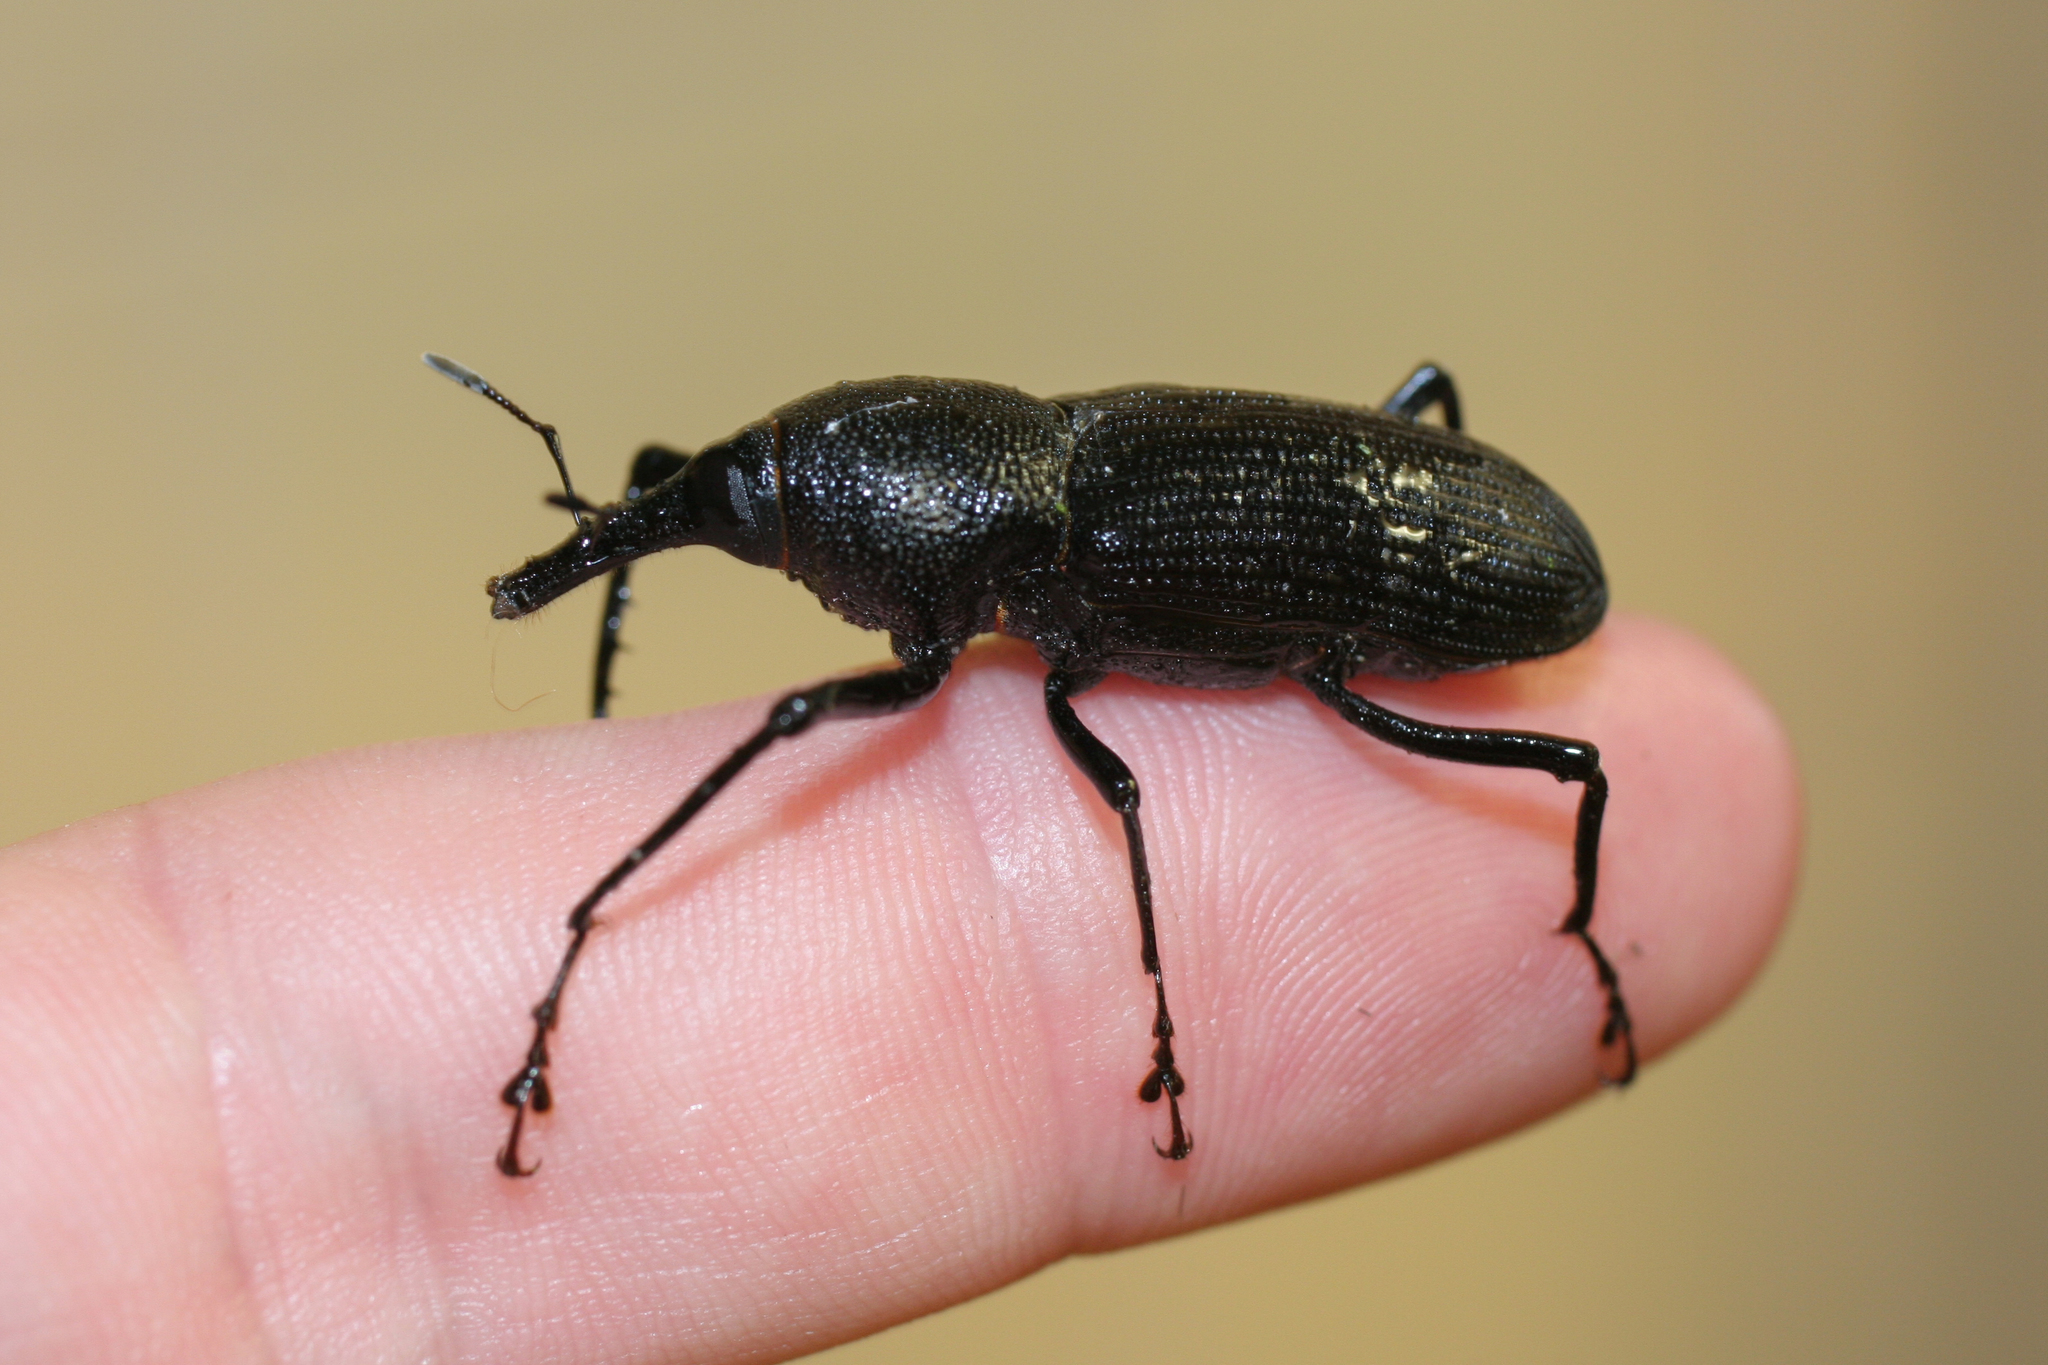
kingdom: Animalia
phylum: Arthropoda
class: Insecta
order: Coleoptera
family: Dryophthoridae
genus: Rhinostomus
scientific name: Rhinostomus barbirostris
